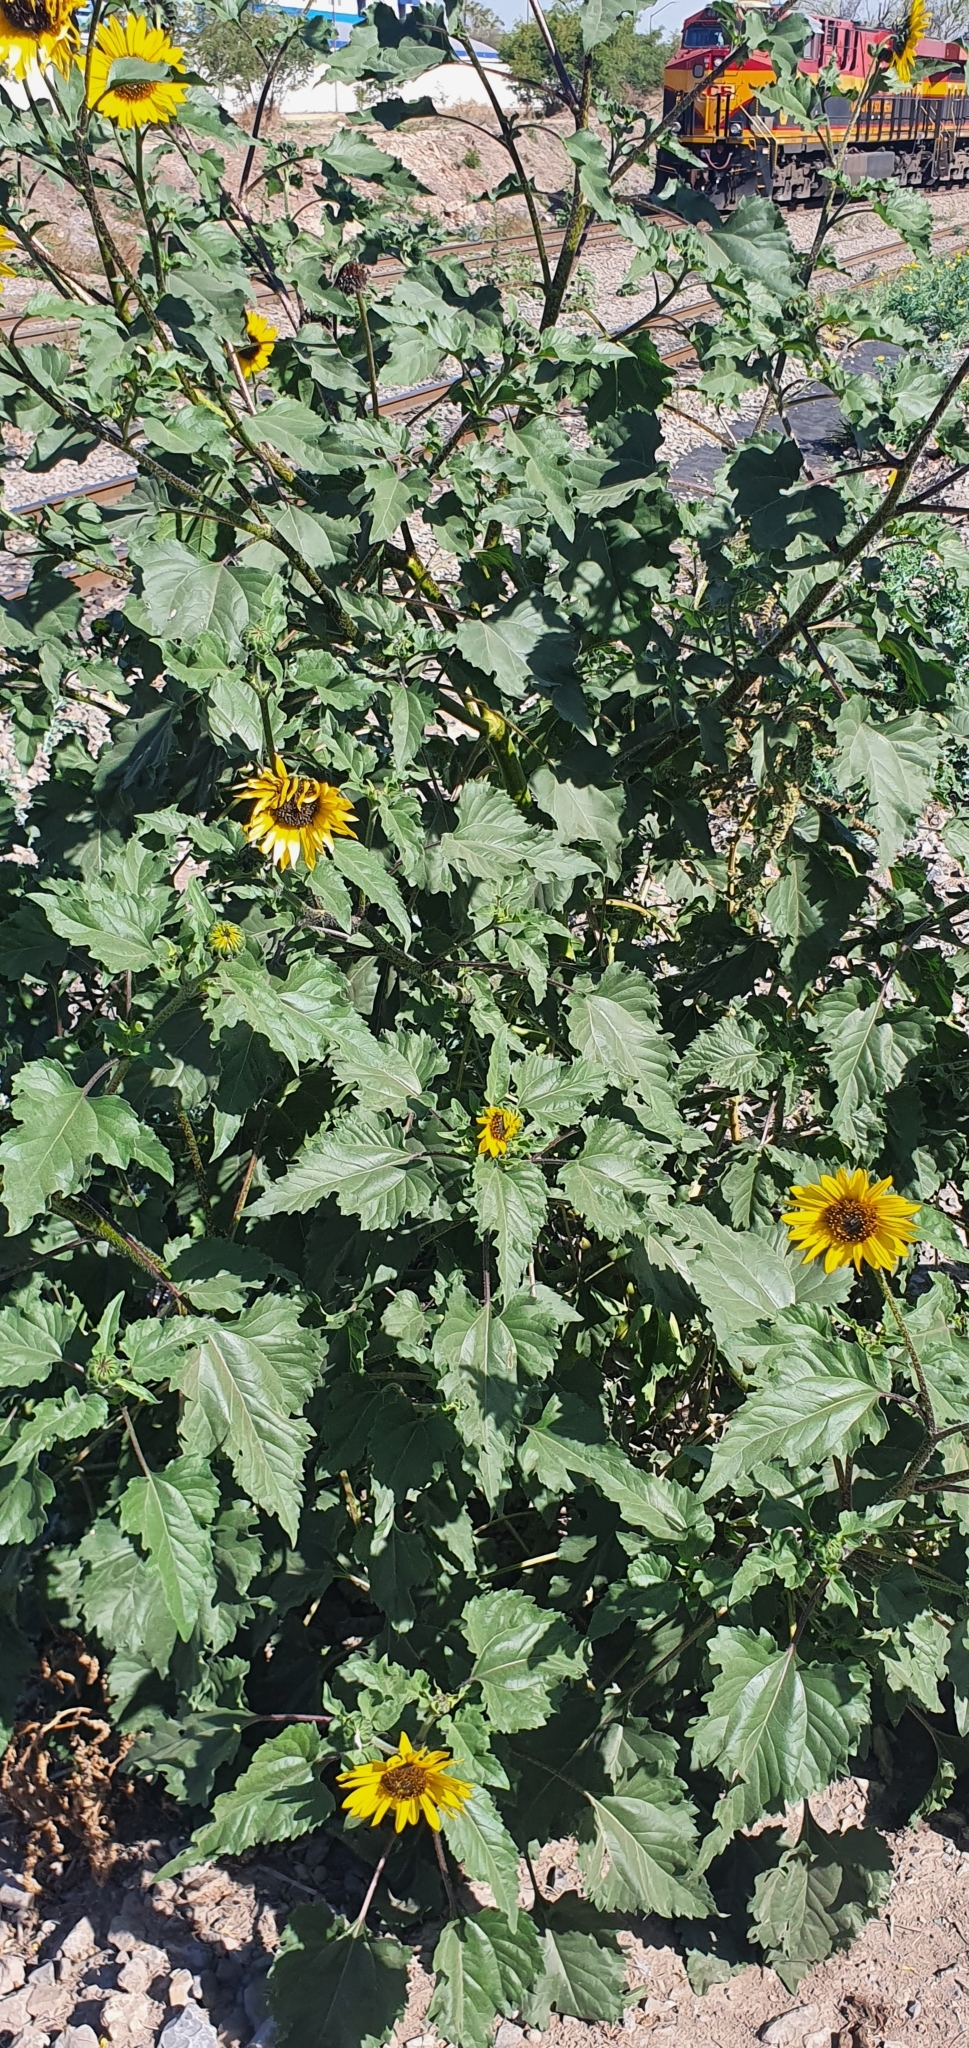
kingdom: Plantae
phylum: Tracheophyta
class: Magnoliopsida
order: Asterales
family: Asteraceae
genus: Helianthus
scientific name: Helianthus annuus
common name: Sunflower
